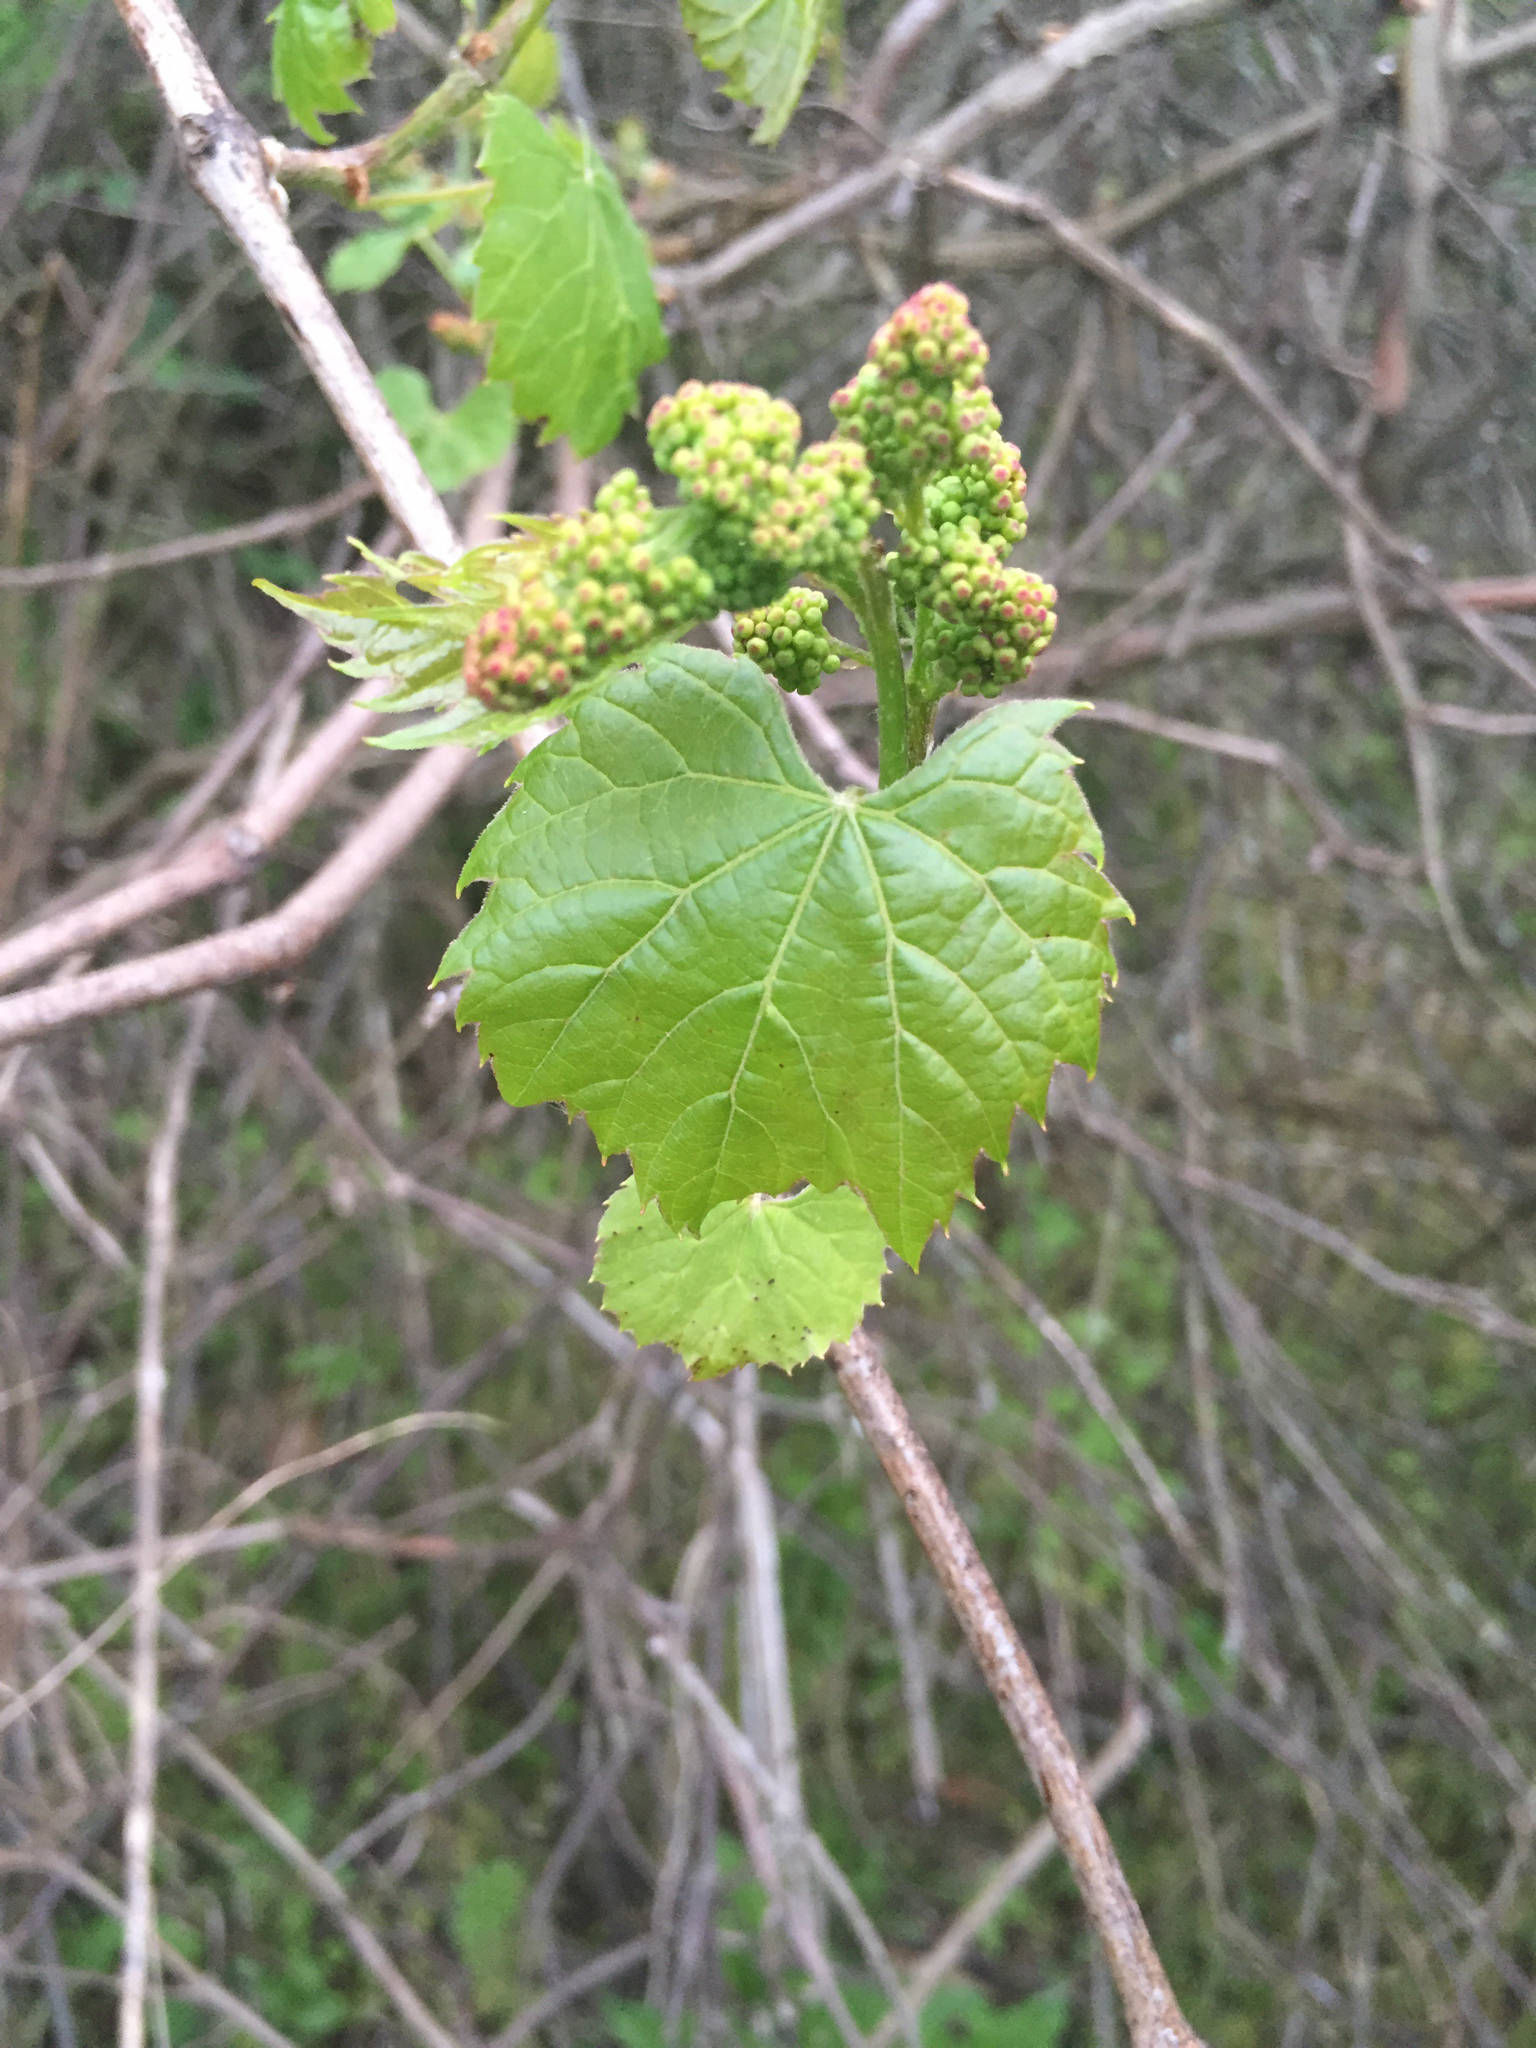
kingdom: Plantae
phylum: Tracheophyta
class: Magnoliopsida
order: Vitales
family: Vitaceae
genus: Vitis
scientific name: Vitis riparia
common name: Frost grape
